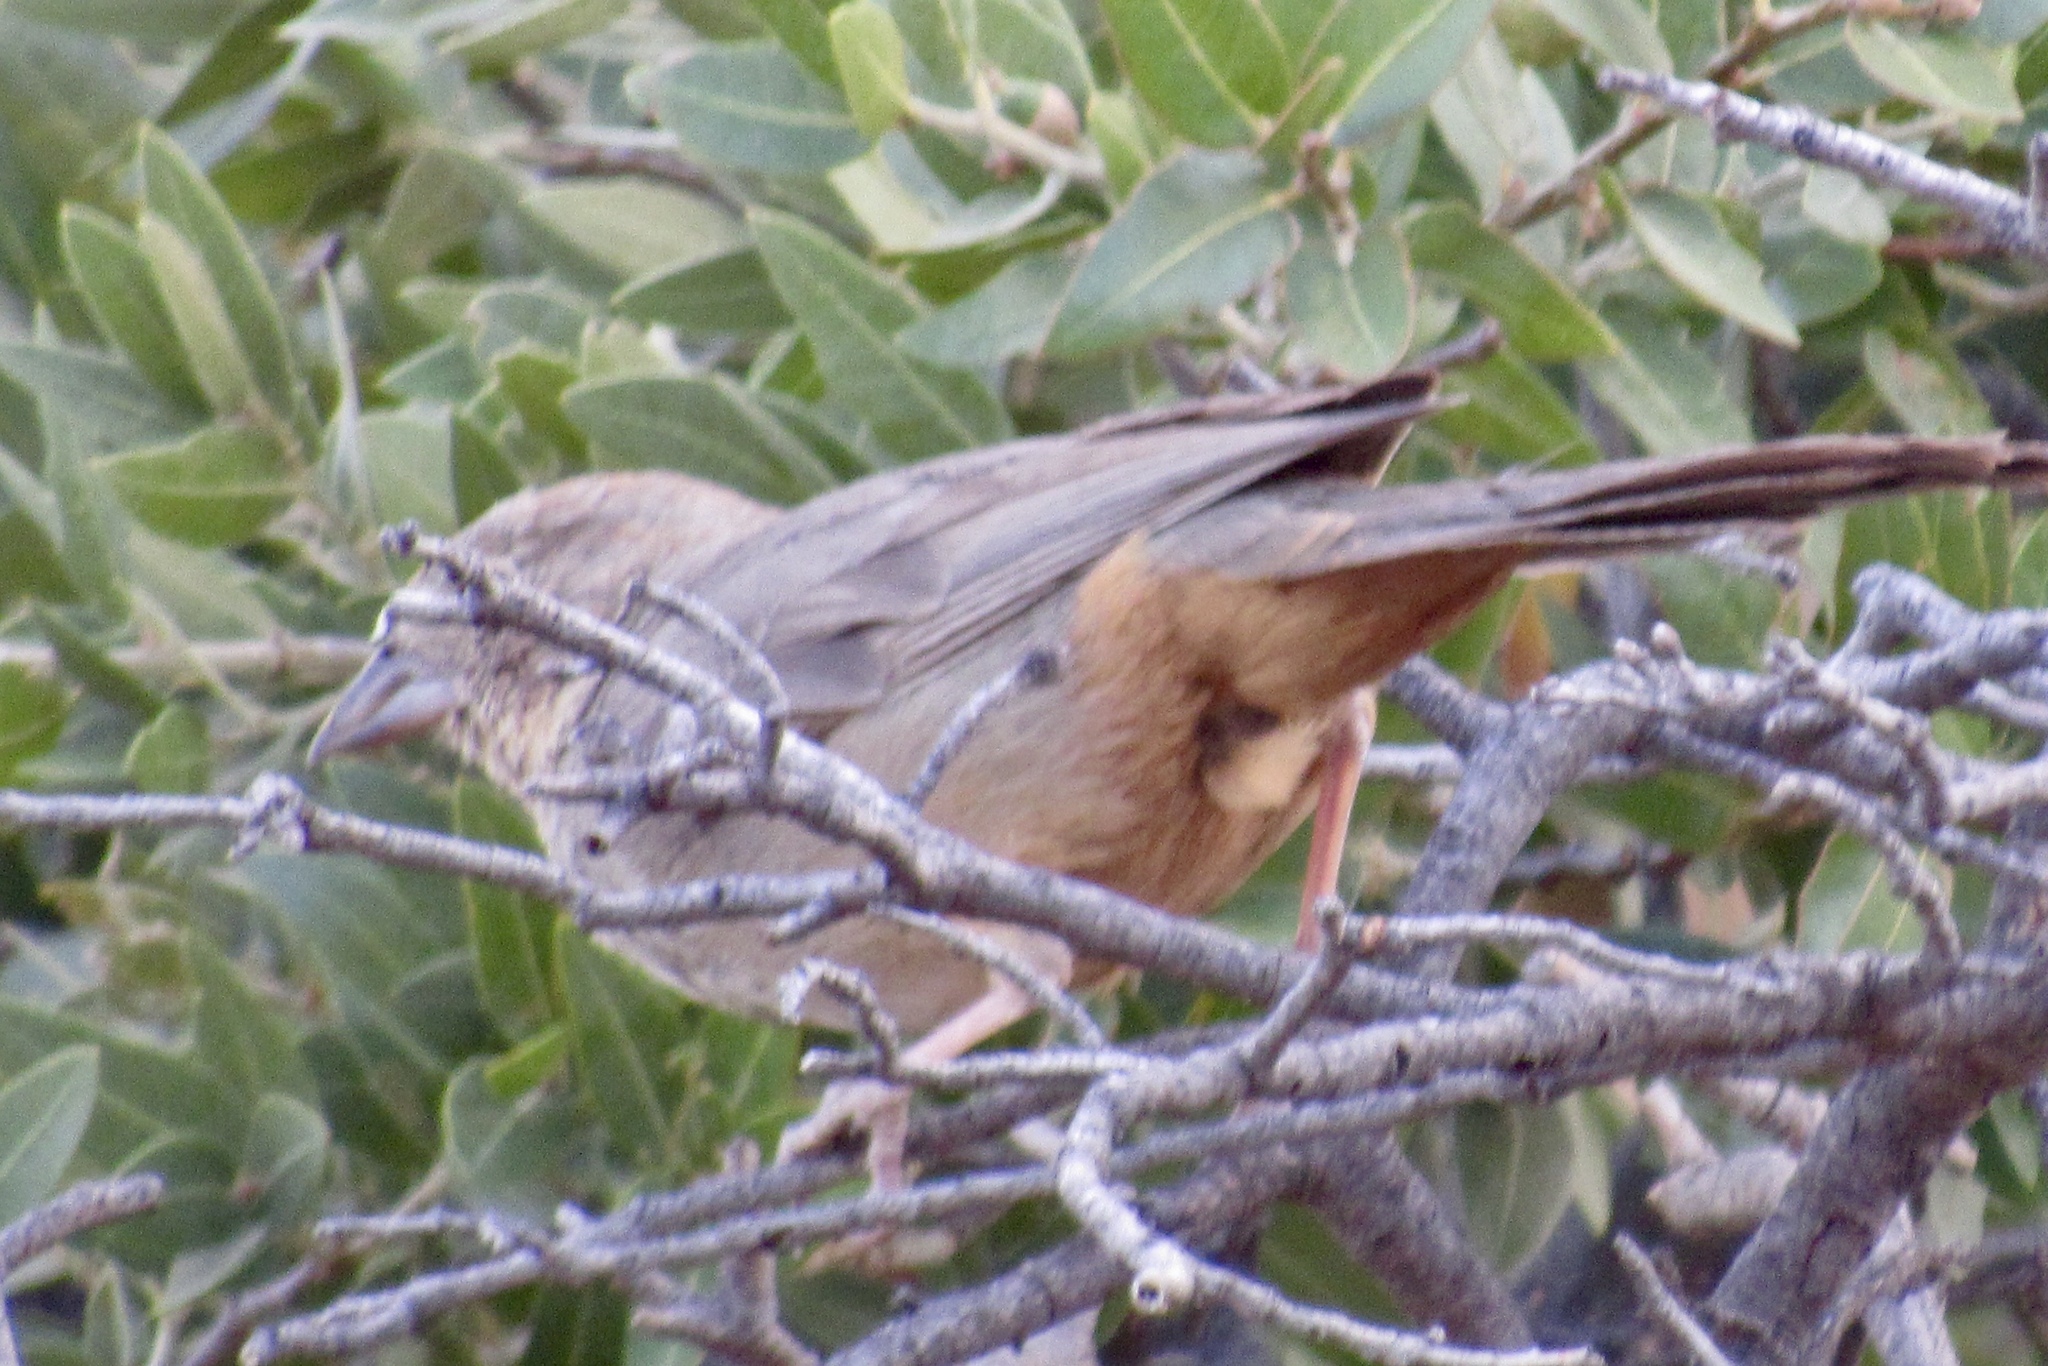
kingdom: Animalia
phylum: Chordata
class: Aves
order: Passeriformes
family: Passerellidae
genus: Melozone
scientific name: Melozone fusca
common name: Canyon towhee
